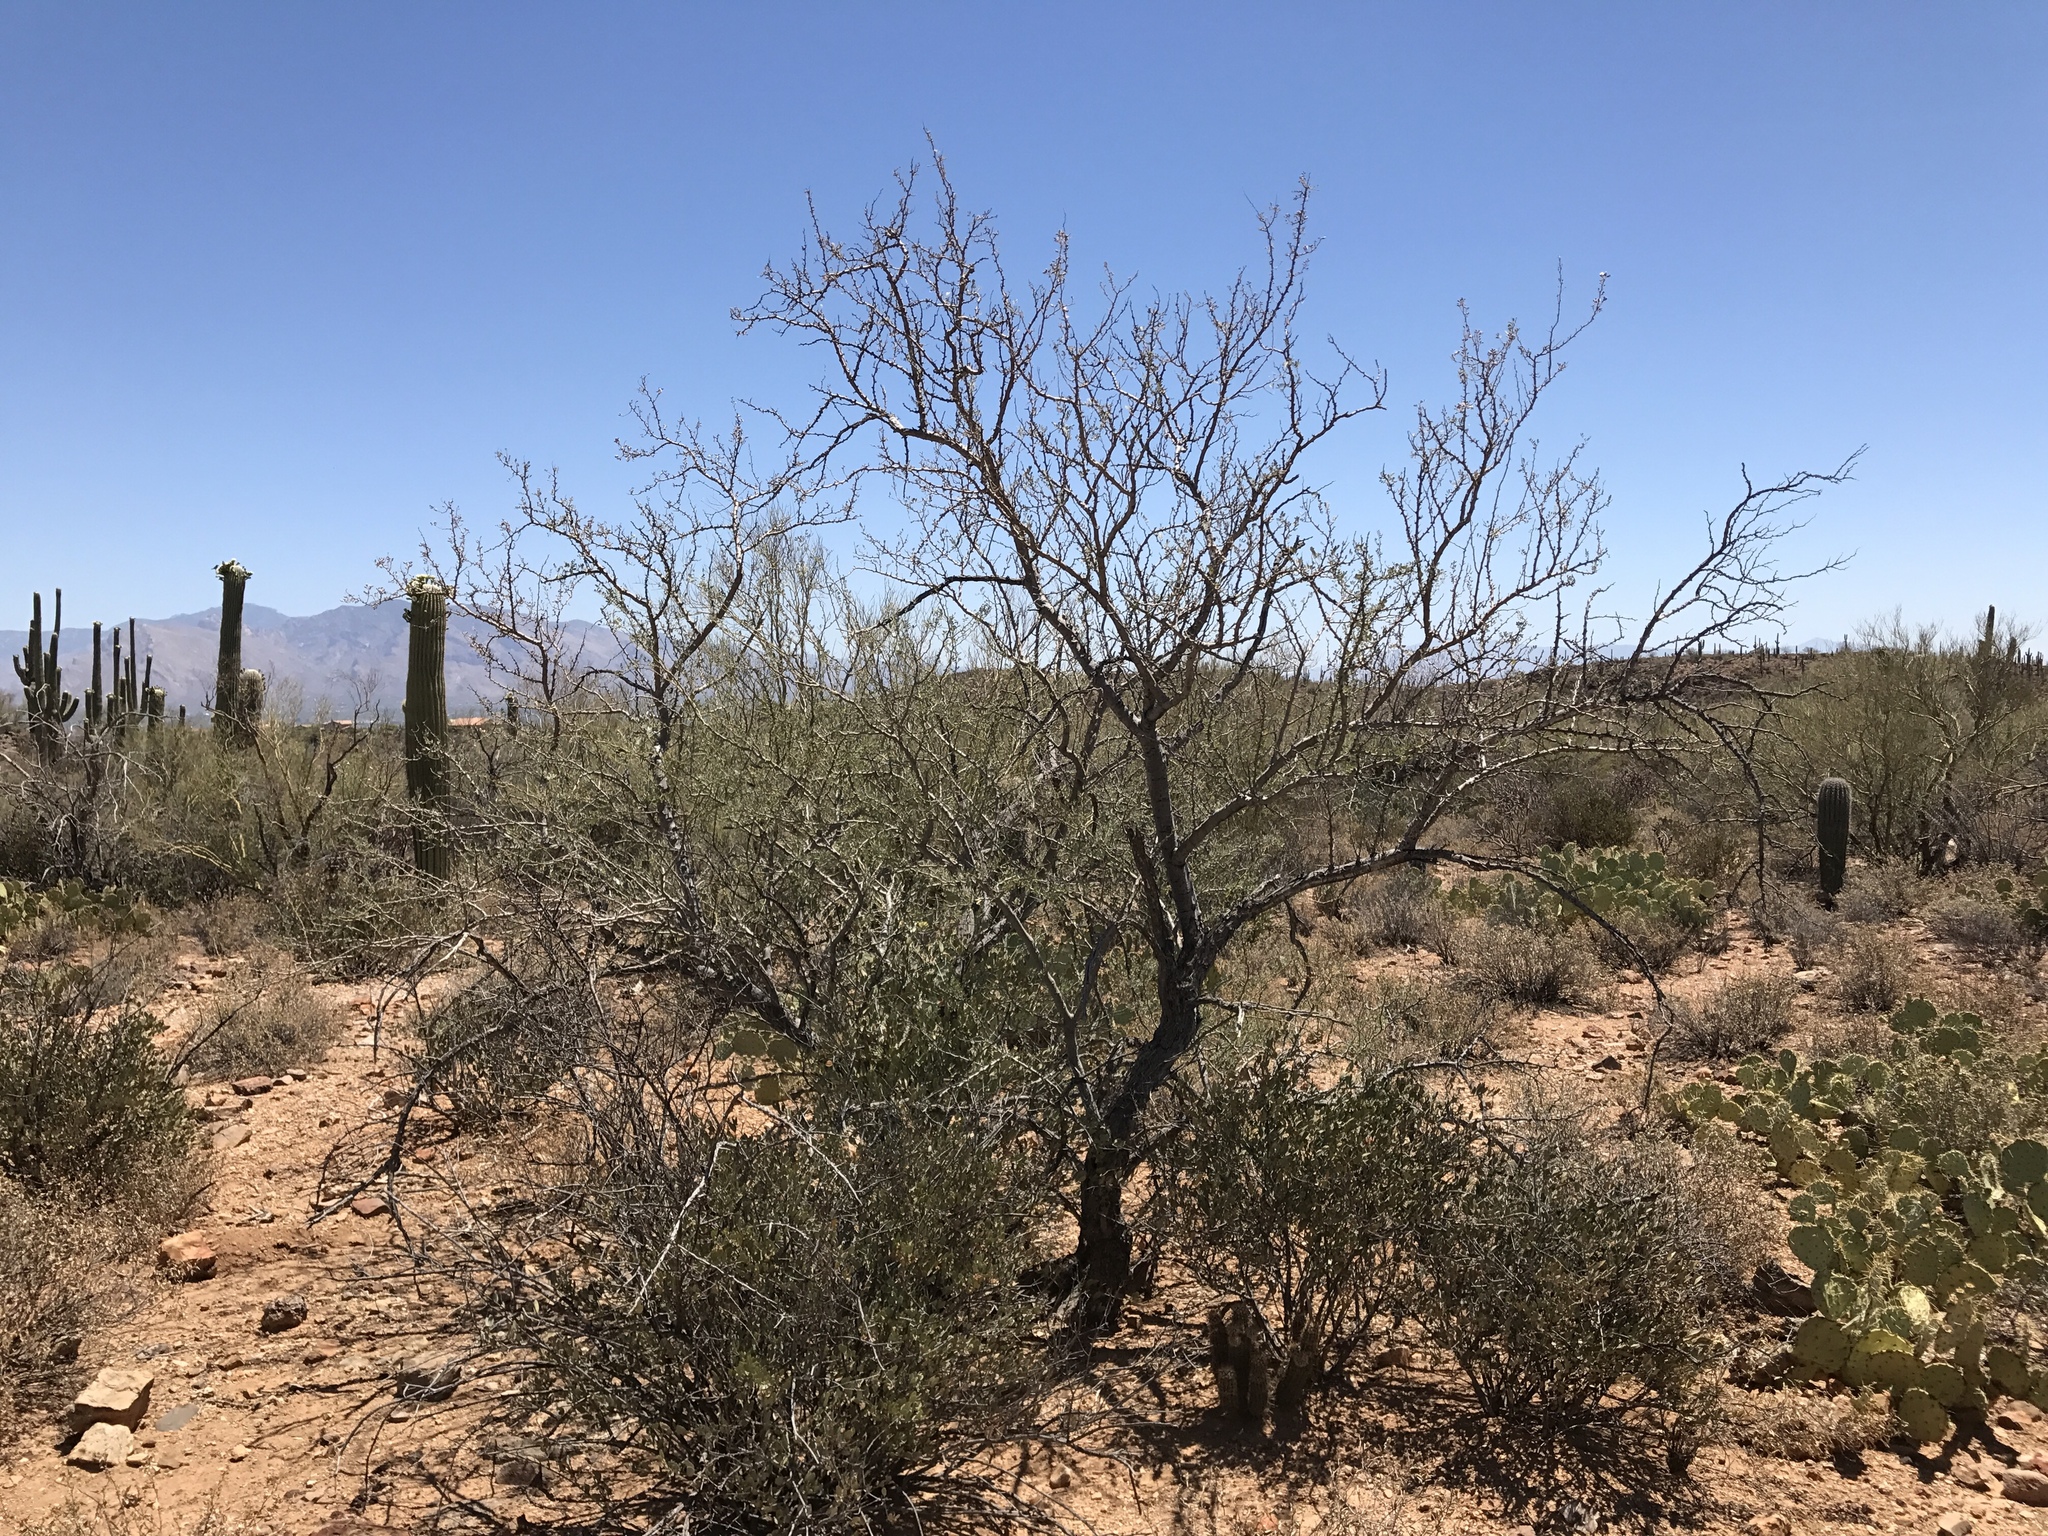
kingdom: Plantae
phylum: Tracheophyta
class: Magnoliopsida
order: Fabales
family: Fabaceae
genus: Olneya
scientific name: Olneya tesota
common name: Desert ironwood
